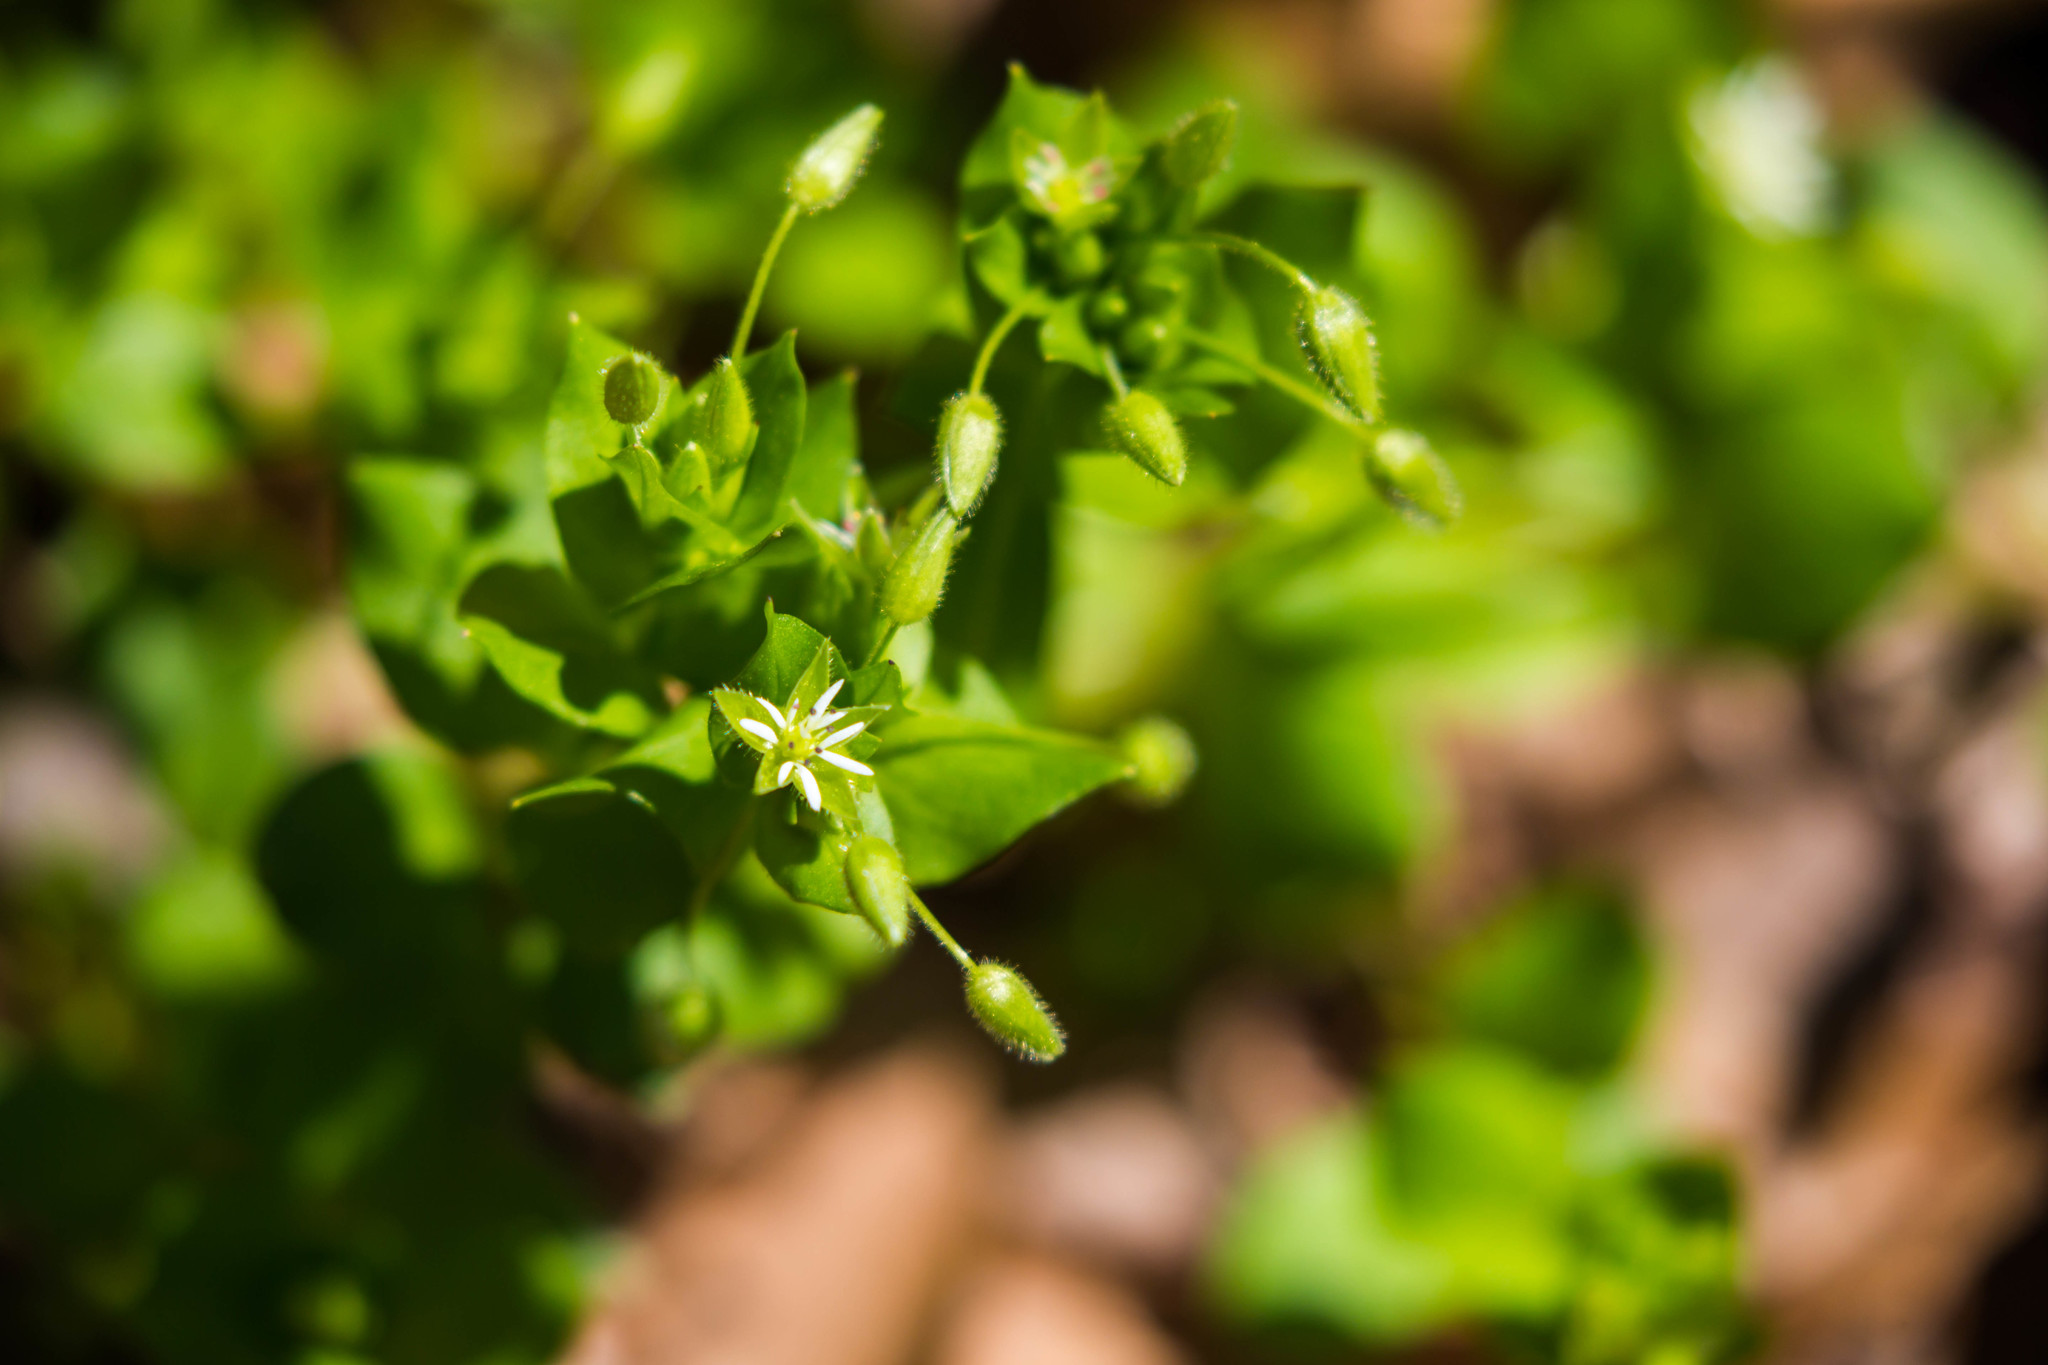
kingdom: Plantae
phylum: Tracheophyta
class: Magnoliopsida
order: Caryophyllales
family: Caryophyllaceae
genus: Stellaria
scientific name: Stellaria media
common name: Common chickweed
